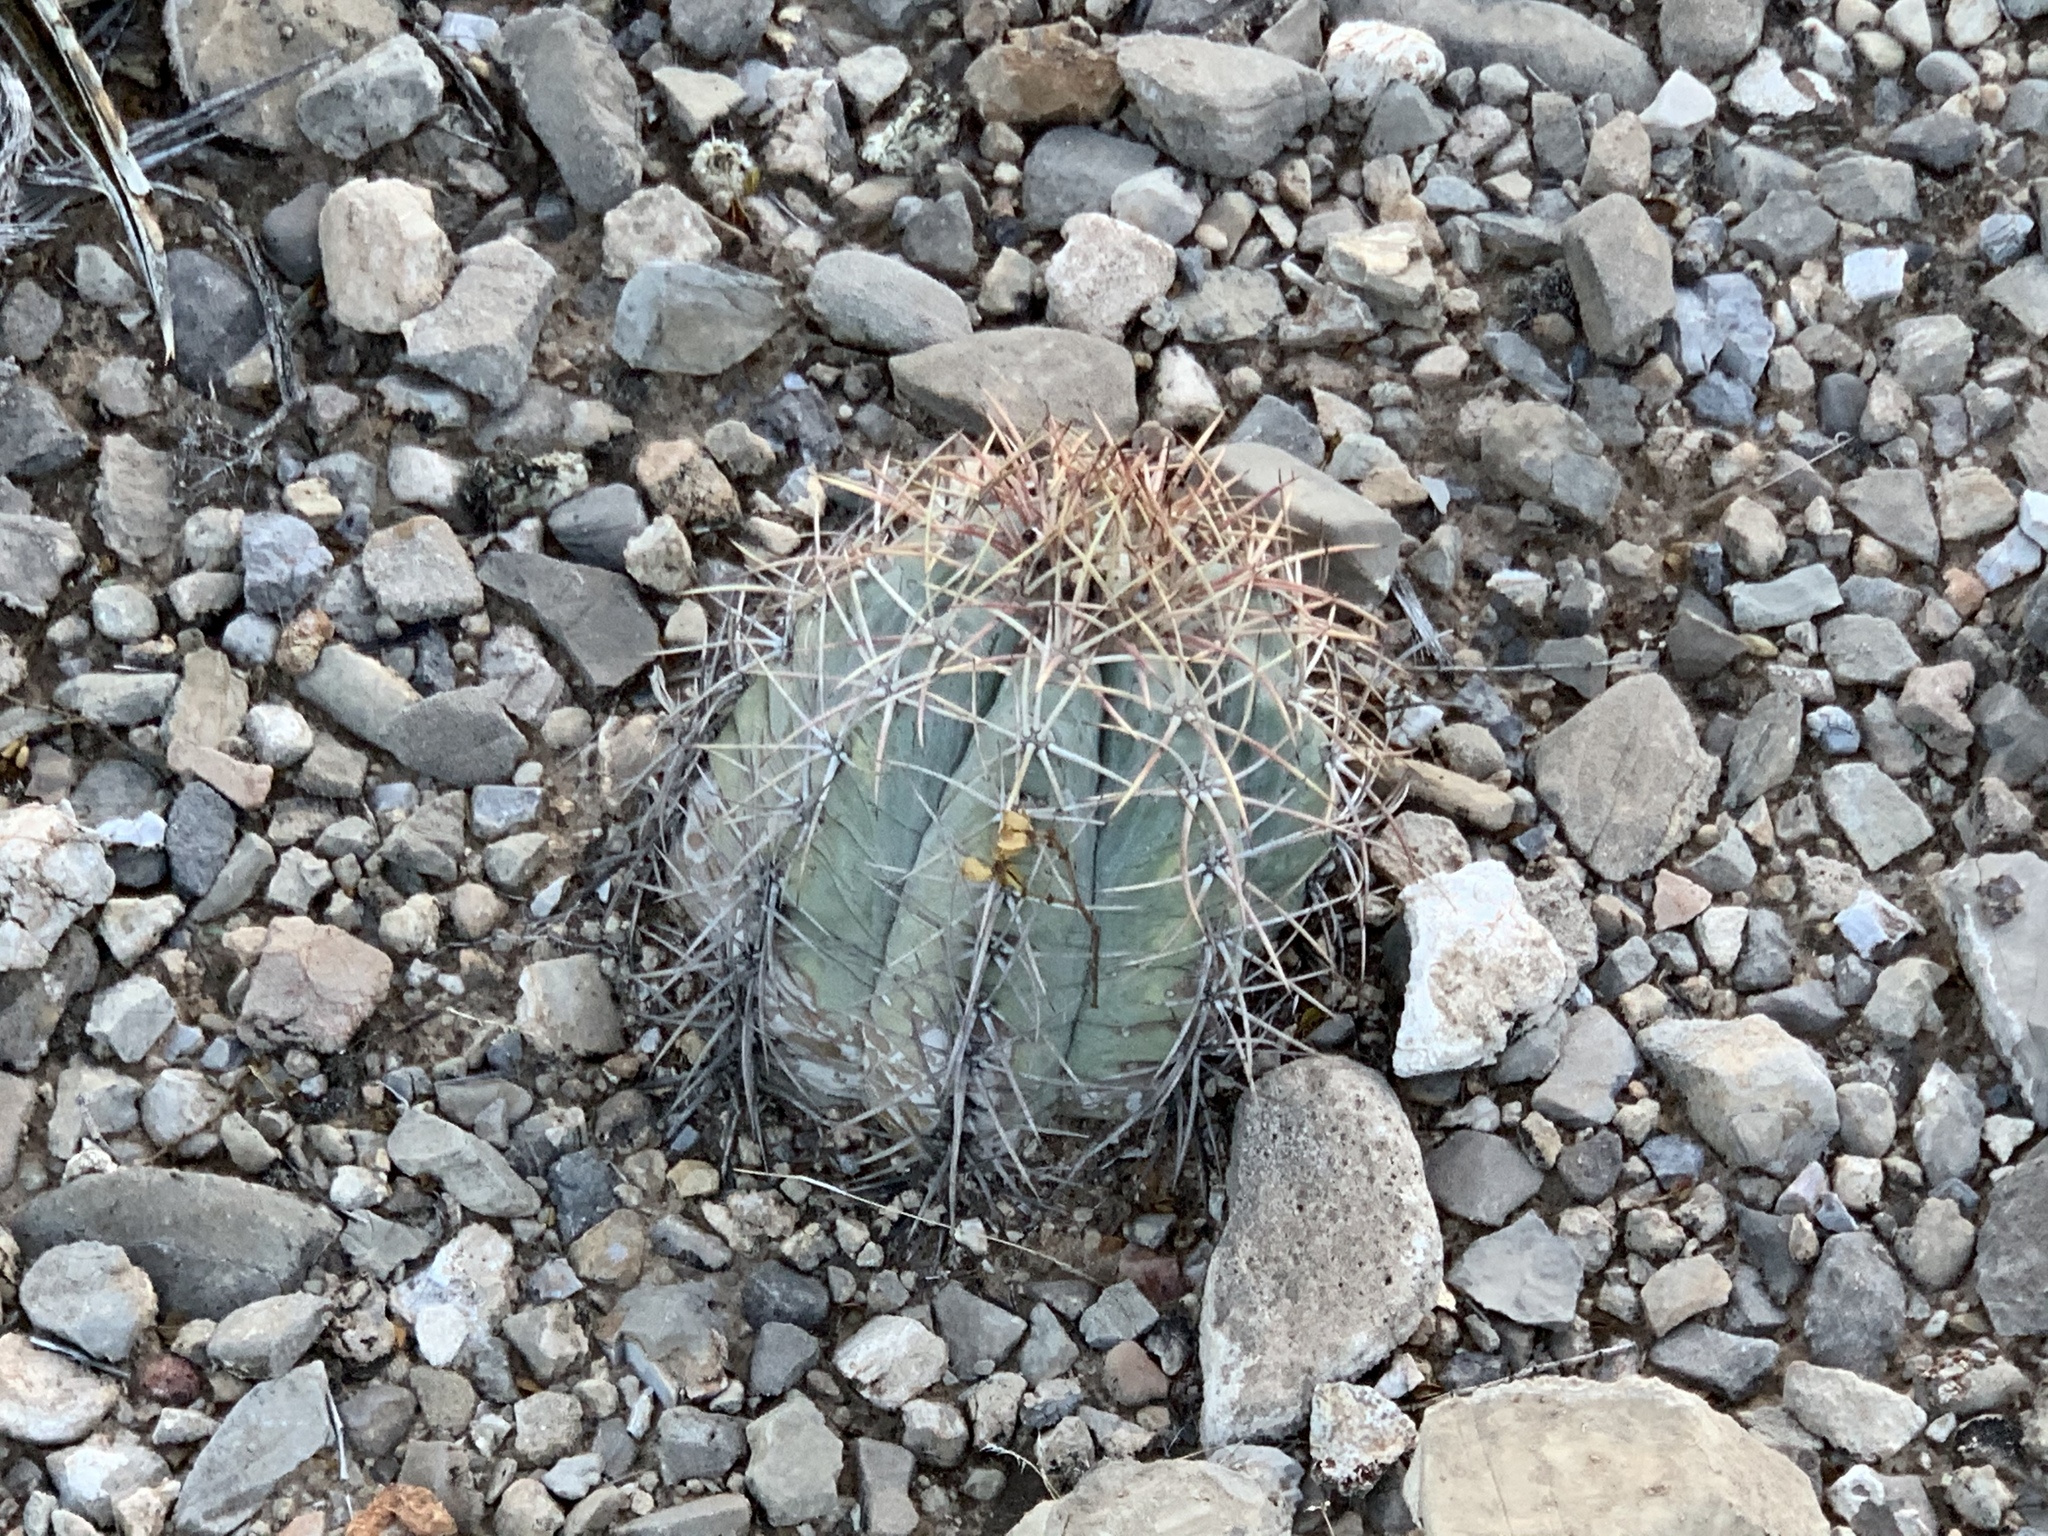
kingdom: Plantae
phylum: Tracheophyta
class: Magnoliopsida
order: Caryophyllales
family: Cactaceae
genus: Echinocactus
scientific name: Echinocactus horizonthalonius
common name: Devilshead
